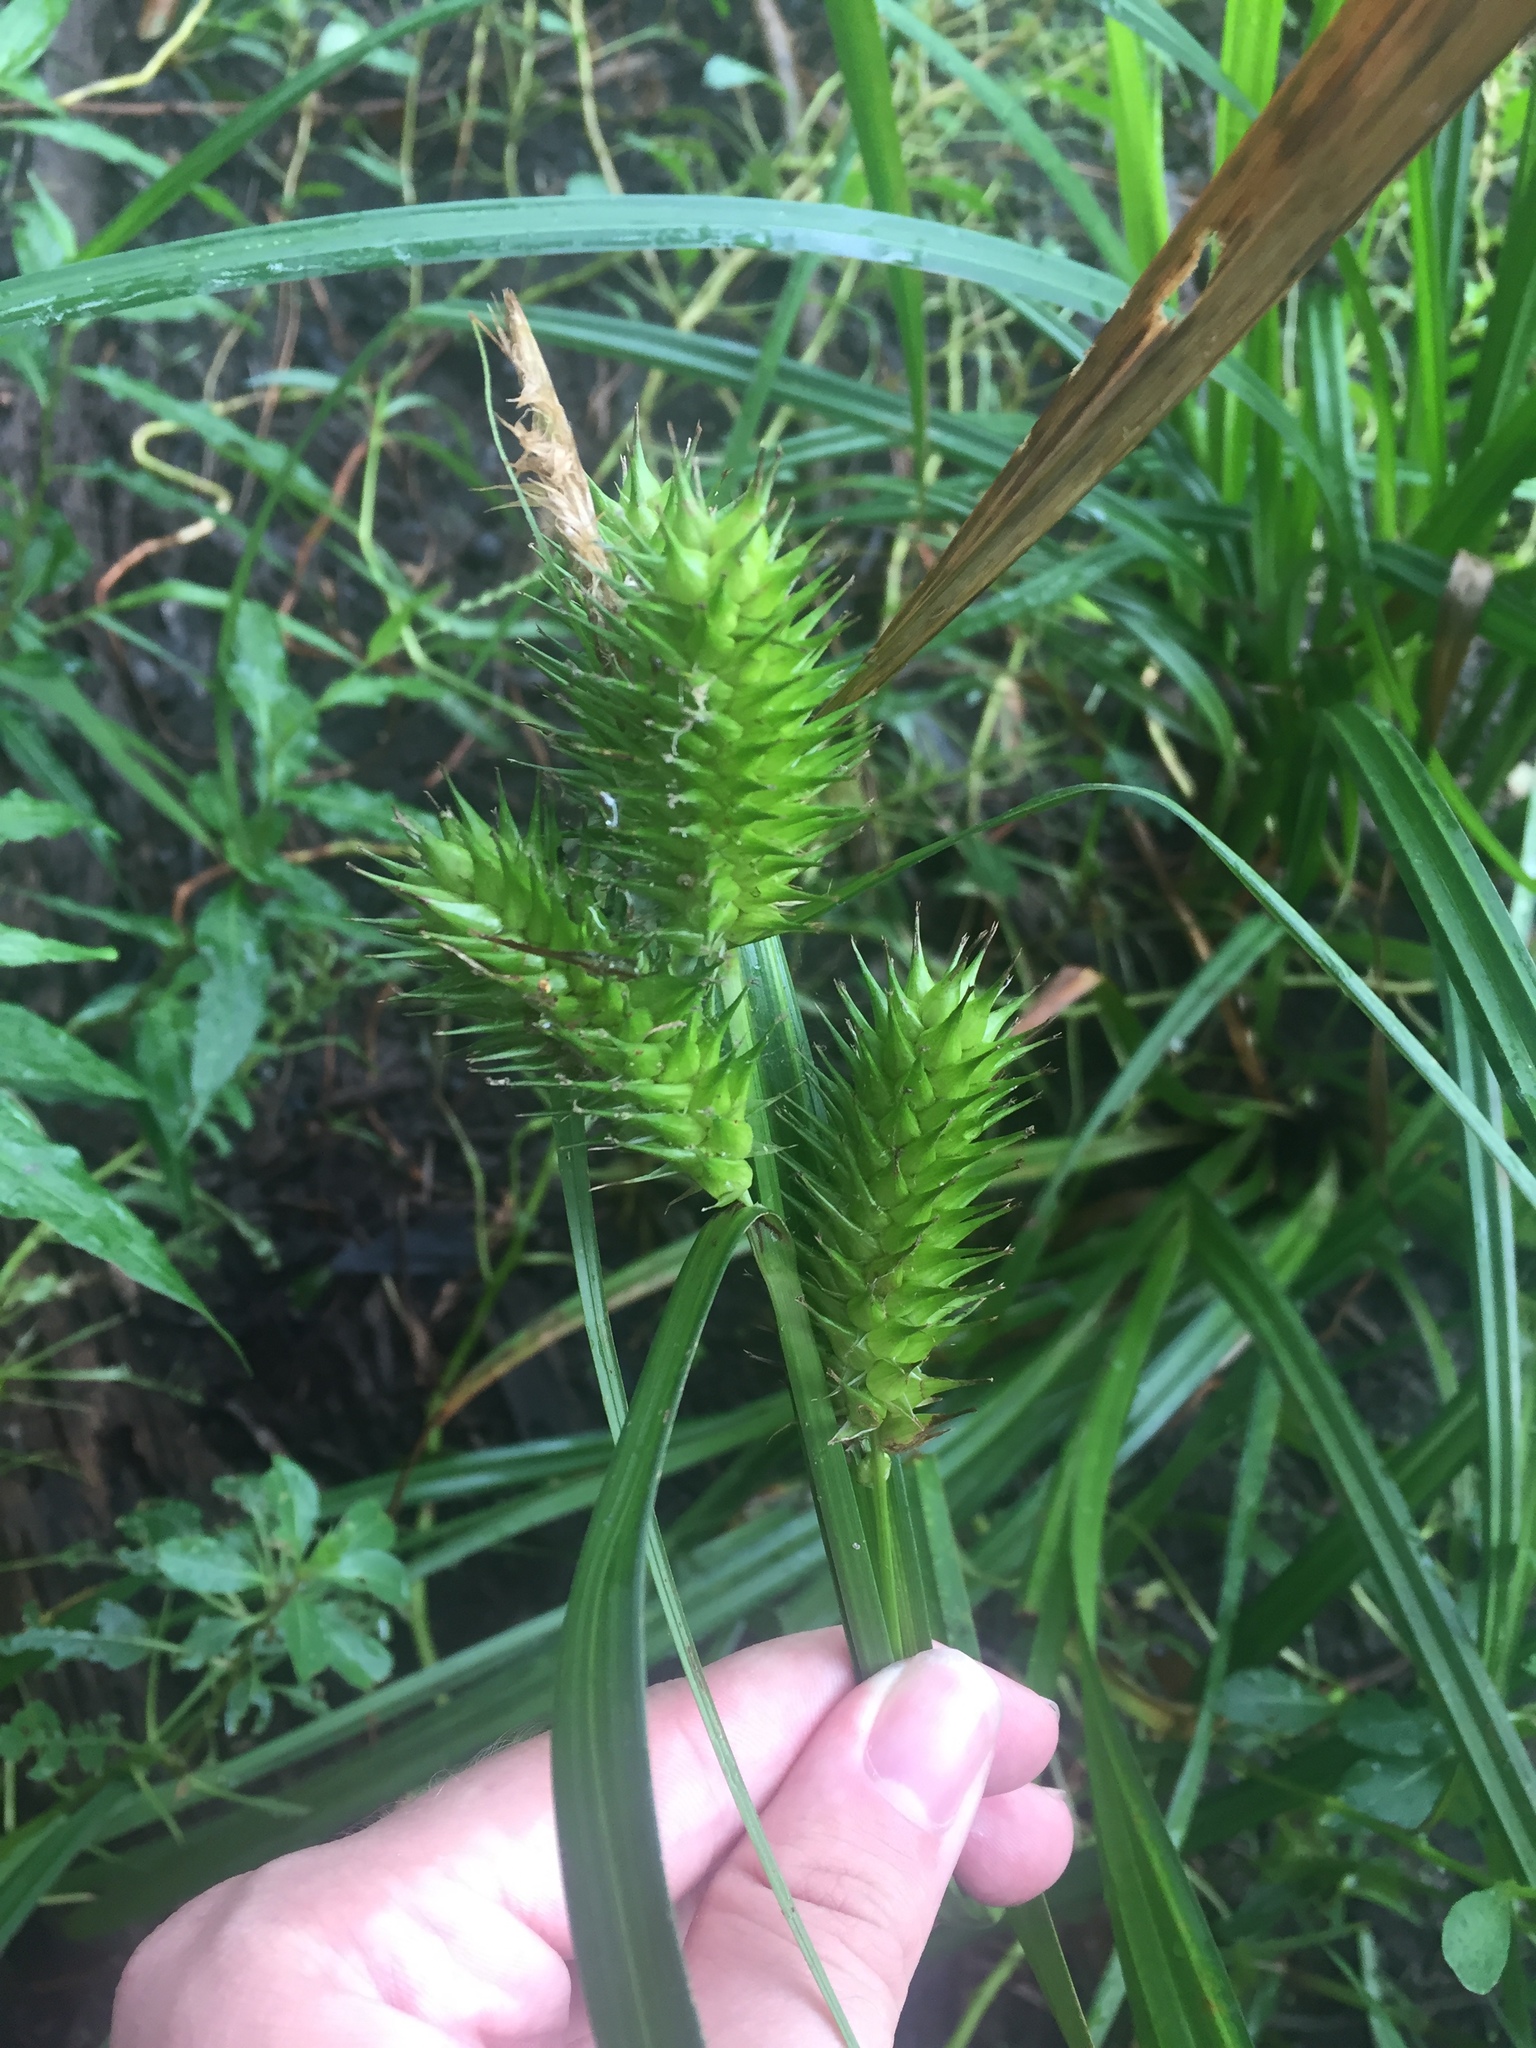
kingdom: Plantae
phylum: Tracheophyta
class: Liliopsida
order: Poales
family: Cyperaceae
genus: Carex
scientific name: Carex lupulina
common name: Hop sedge
